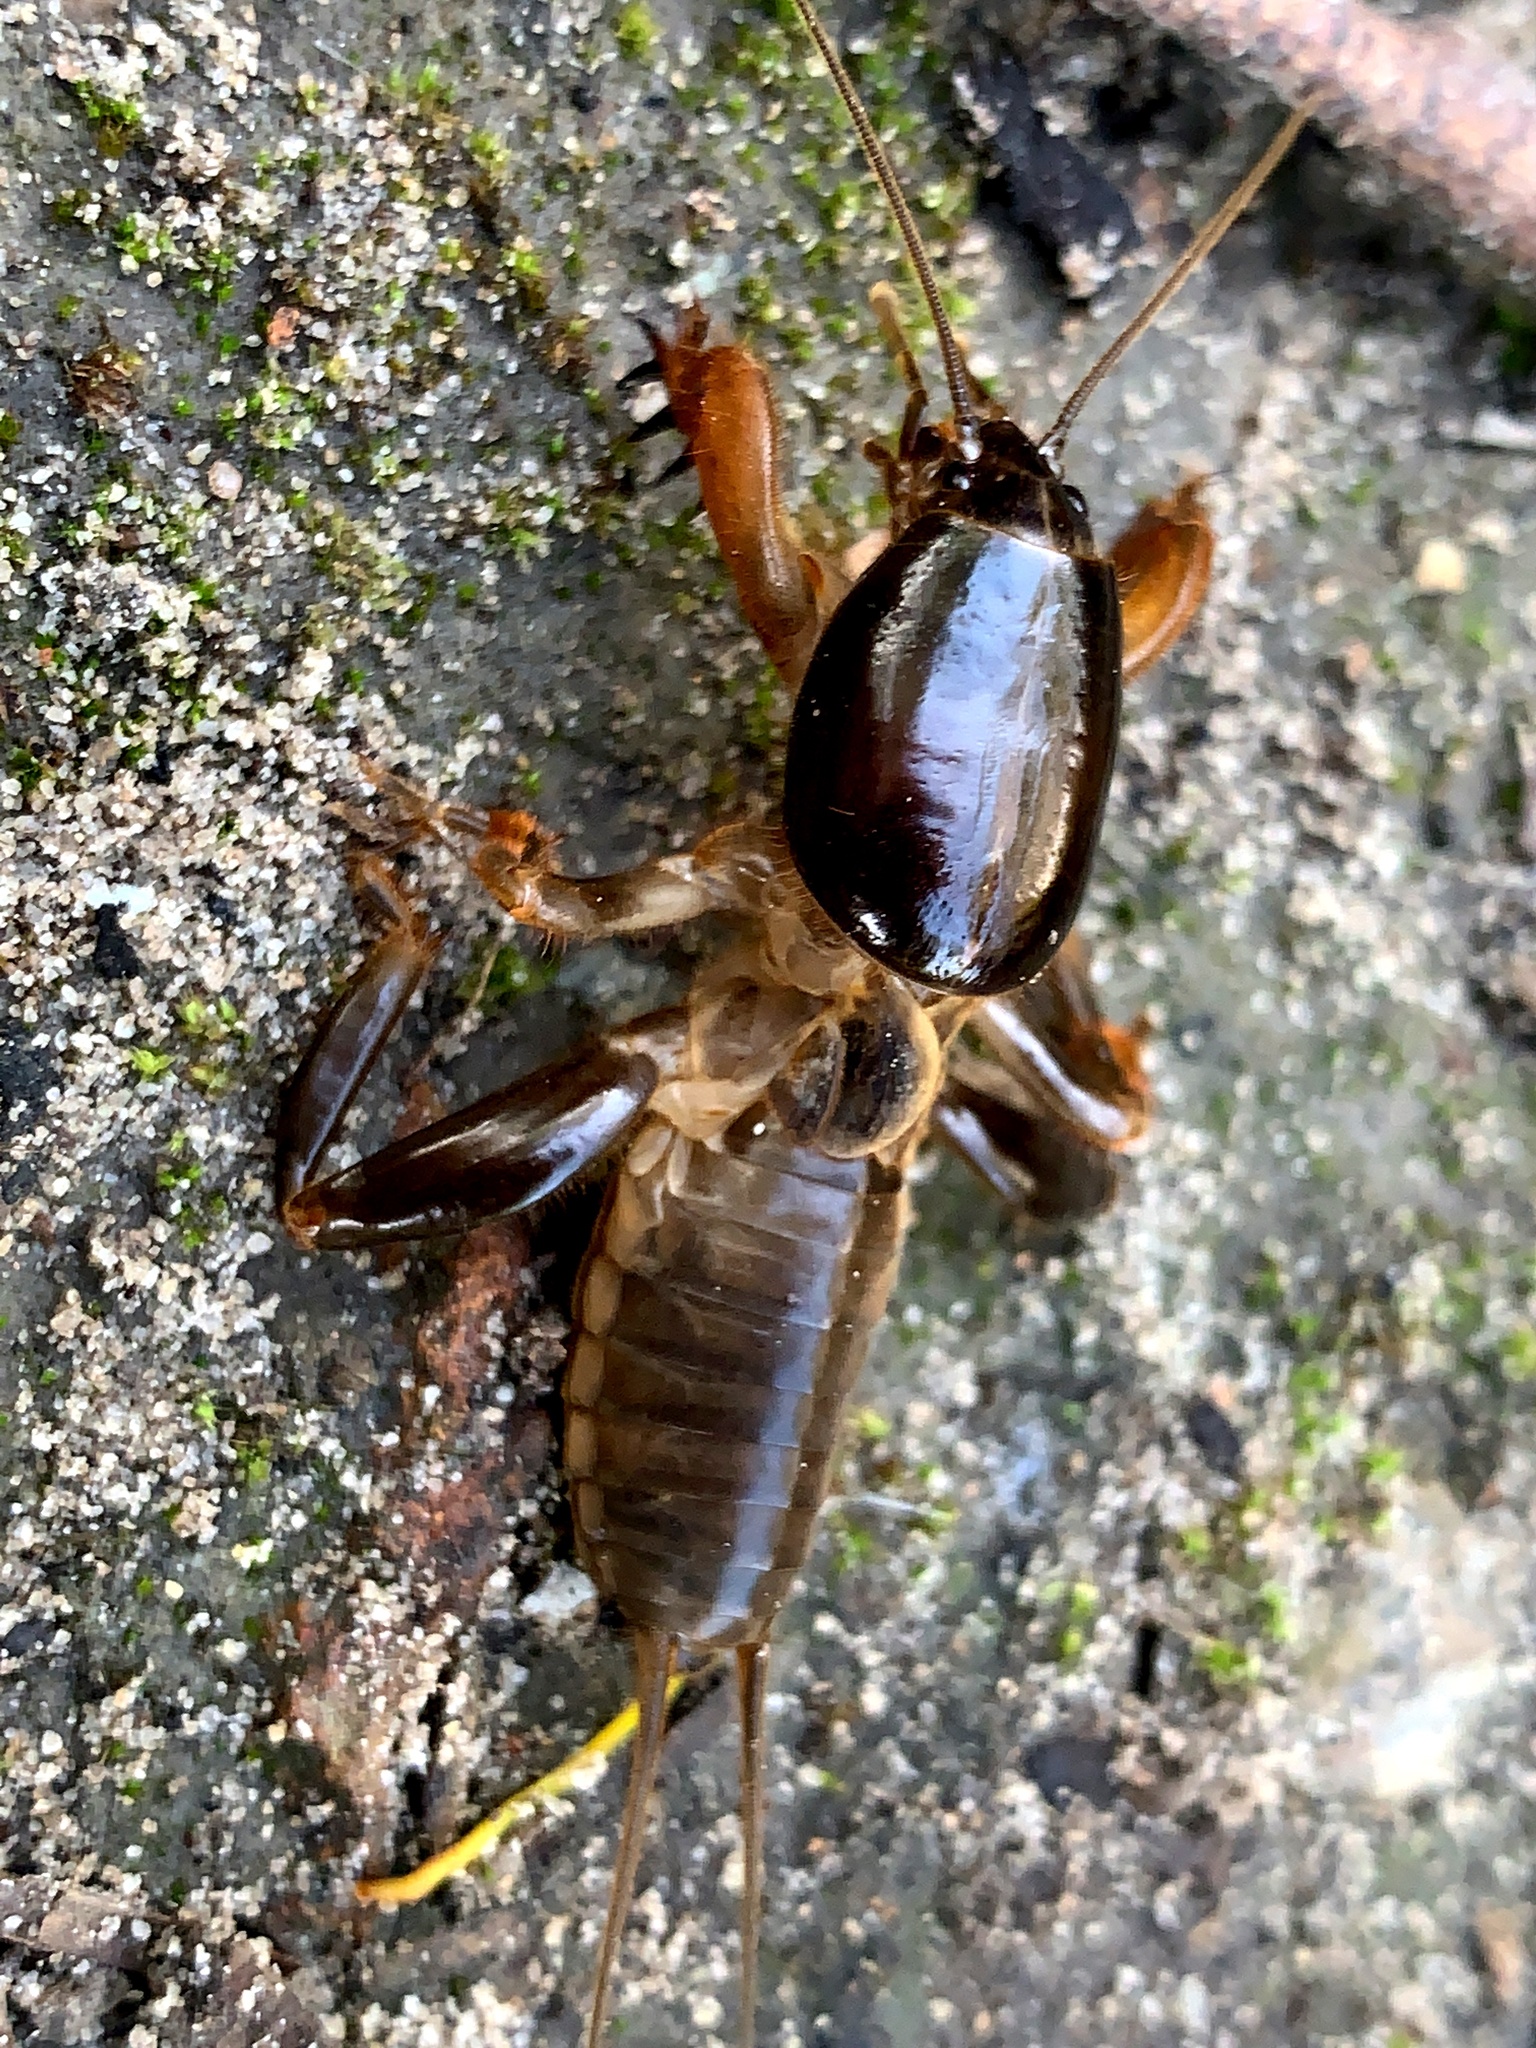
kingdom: Animalia
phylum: Arthropoda
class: Insecta
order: Orthoptera
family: Gryllotalpidae
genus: Gryllotalpa
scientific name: Gryllotalpa australis
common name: Southern mole cricket
